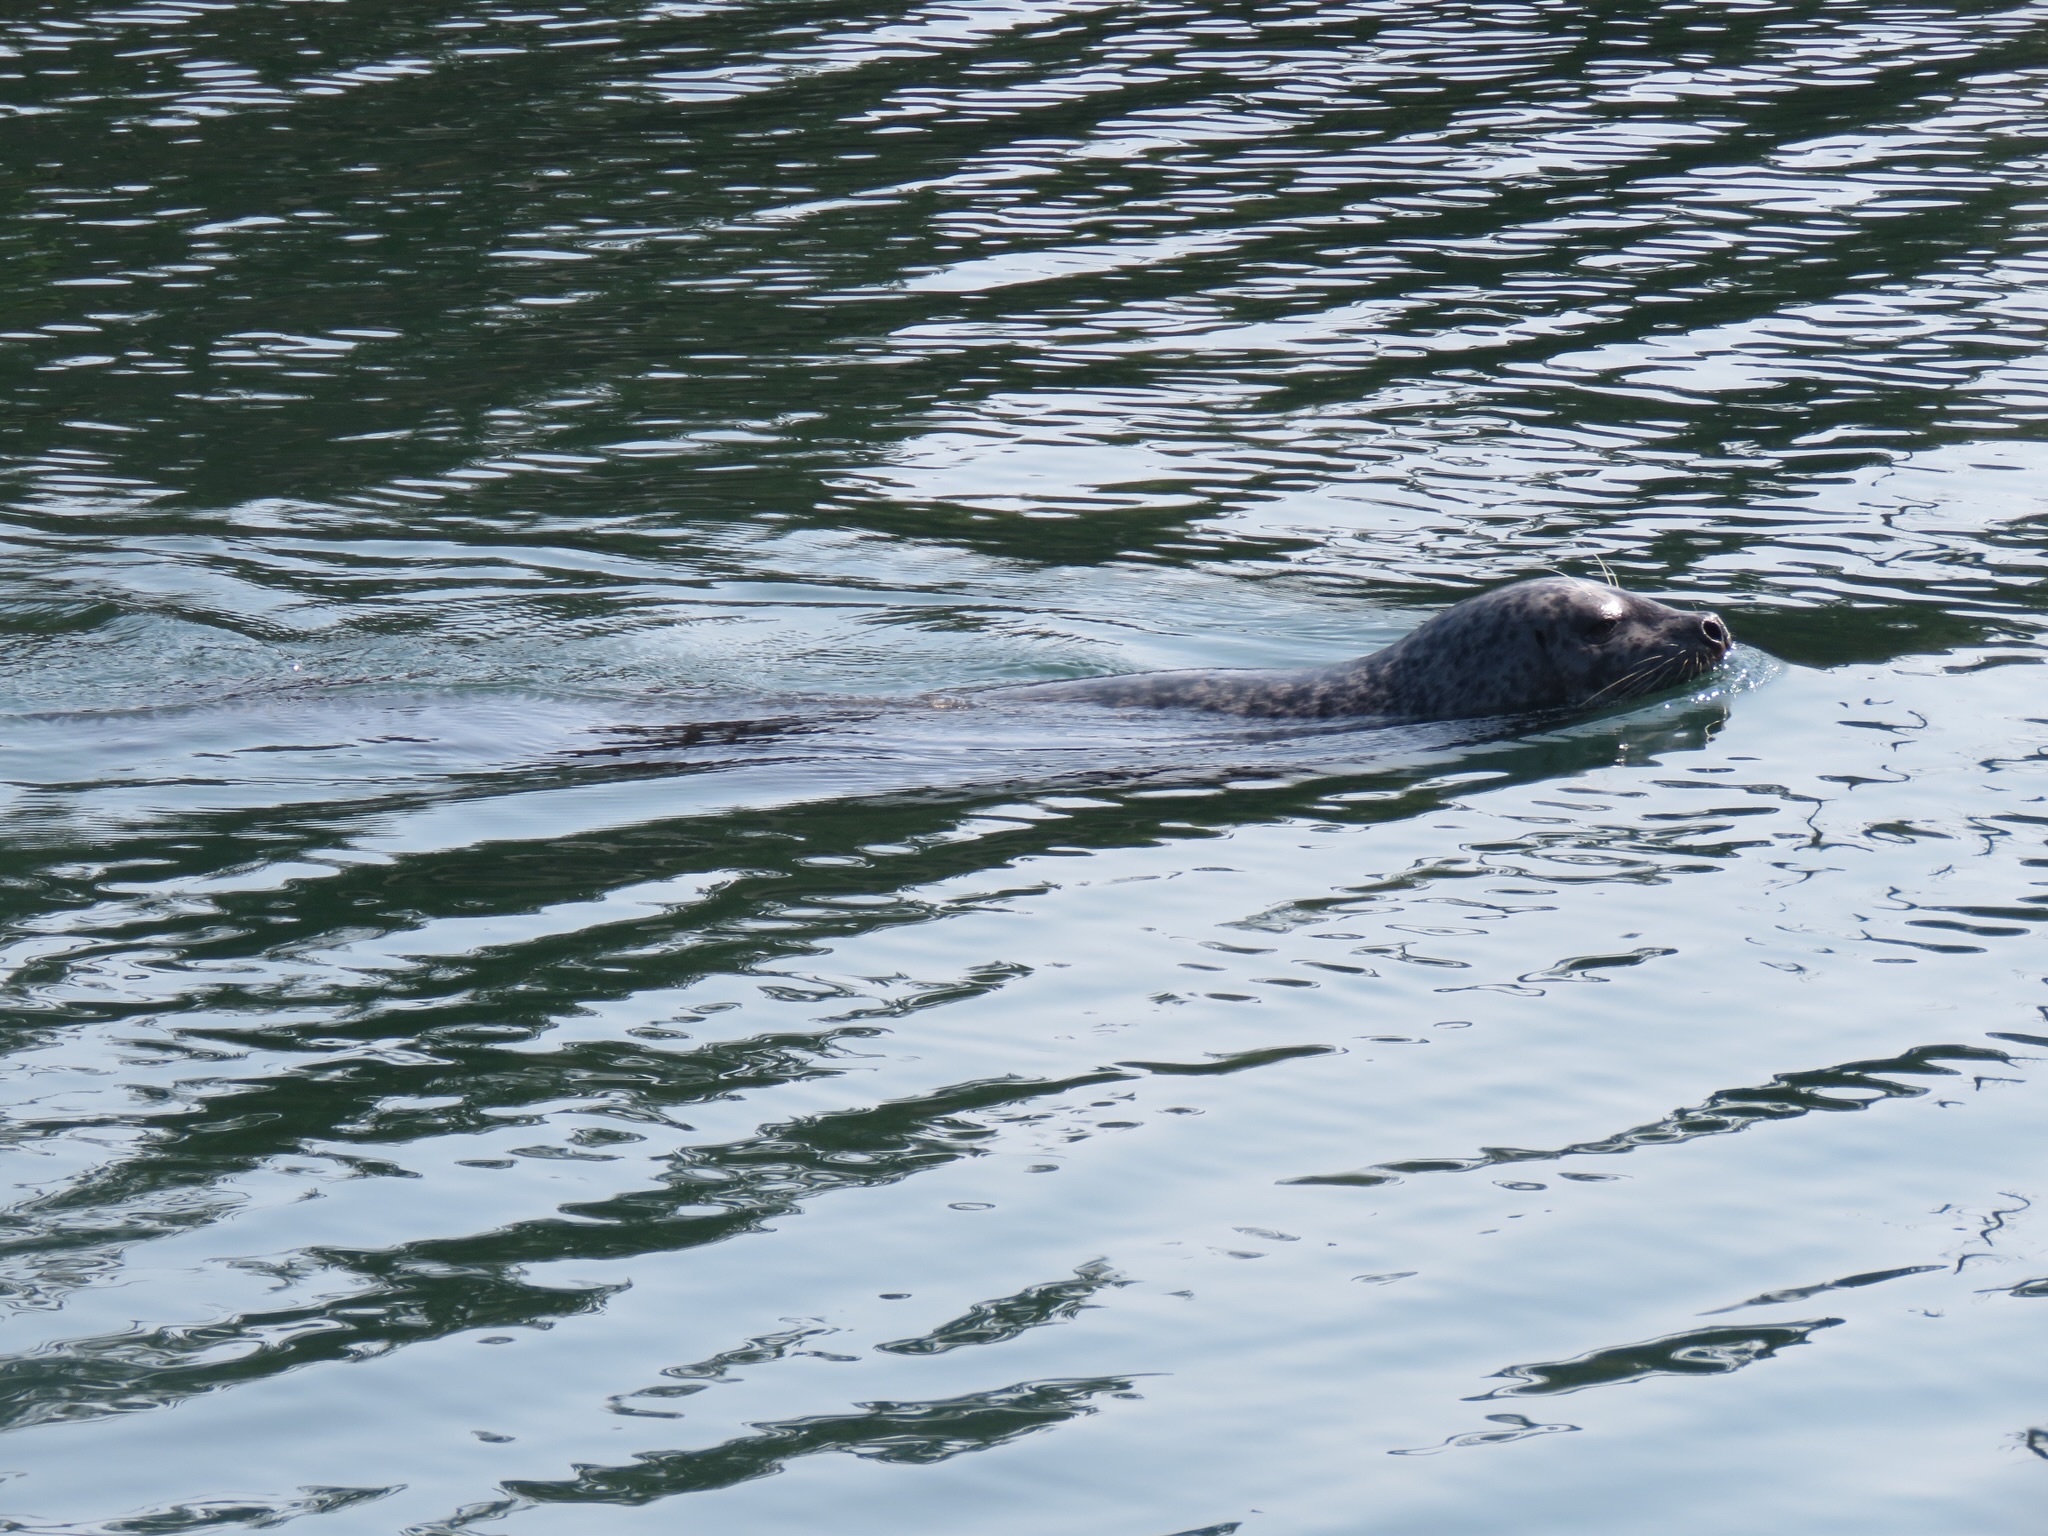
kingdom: Animalia
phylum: Chordata
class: Mammalia
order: Carnivora
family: Phocidae
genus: Phoca
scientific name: Phoca vitulina
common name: Harbor seal
